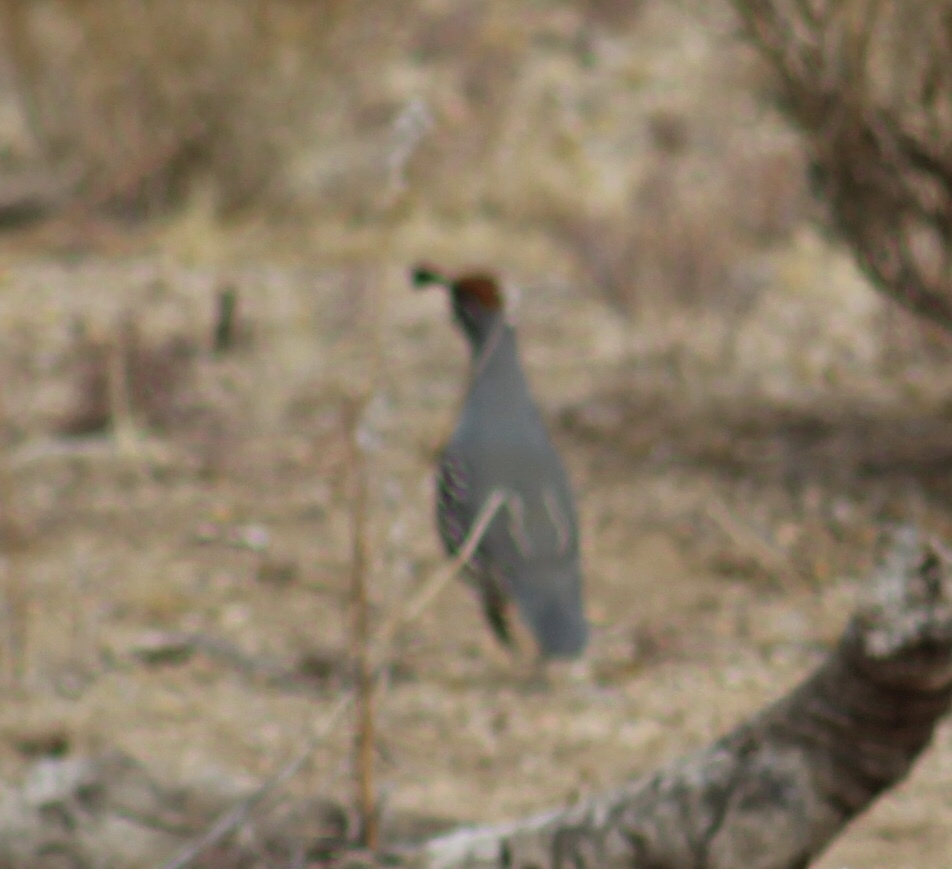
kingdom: Animalia
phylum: Chordata
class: Aves
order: Galliformes
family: Odontophoridae
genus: Callipepla
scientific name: Callipepla gambelii
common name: Gambel's quail
